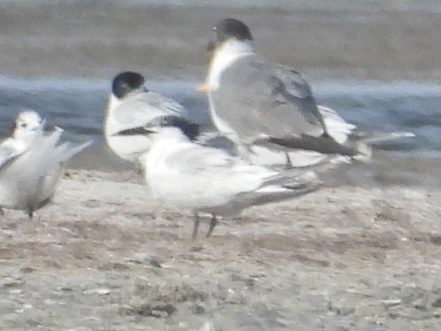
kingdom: Animalia
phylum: Chordata
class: Aves
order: Charadriiformes
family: Laridae
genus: Thalasseus
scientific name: Thalasseus sandvicensis
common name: Sandwich tern
